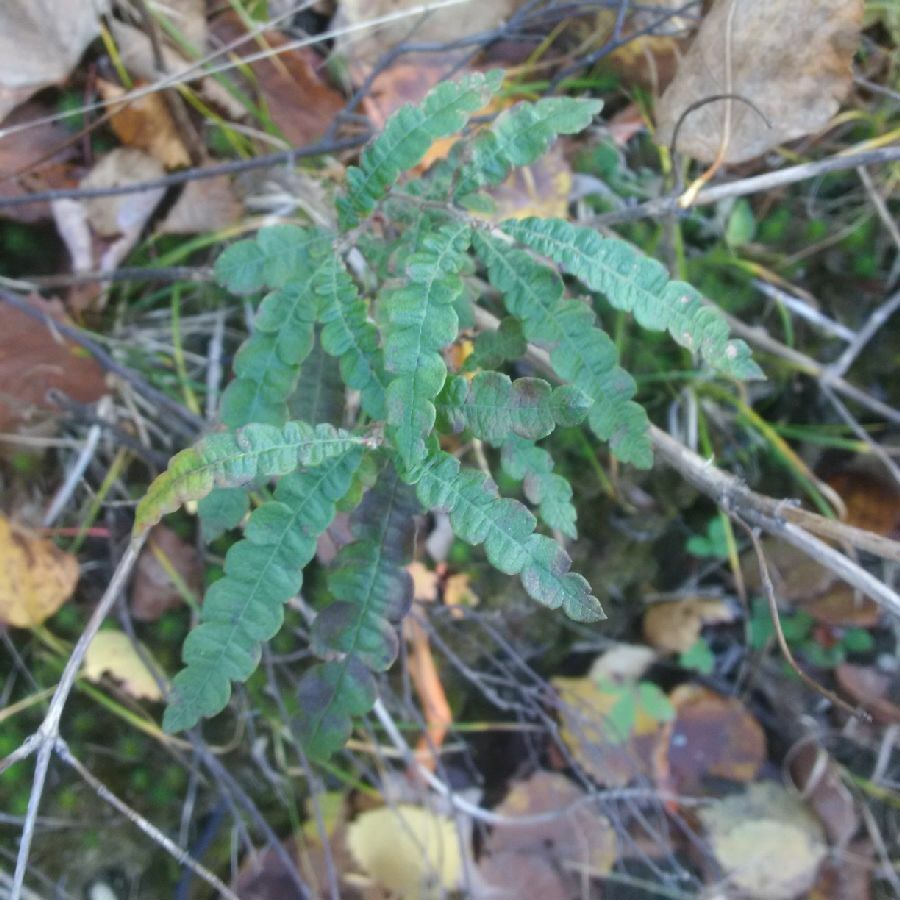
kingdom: Plantae
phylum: Tracheophyta
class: Magnoliopsida
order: Fagales
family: Myricaceae
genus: Comptonia
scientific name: Comptonia peregrina
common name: Sweet-fern
